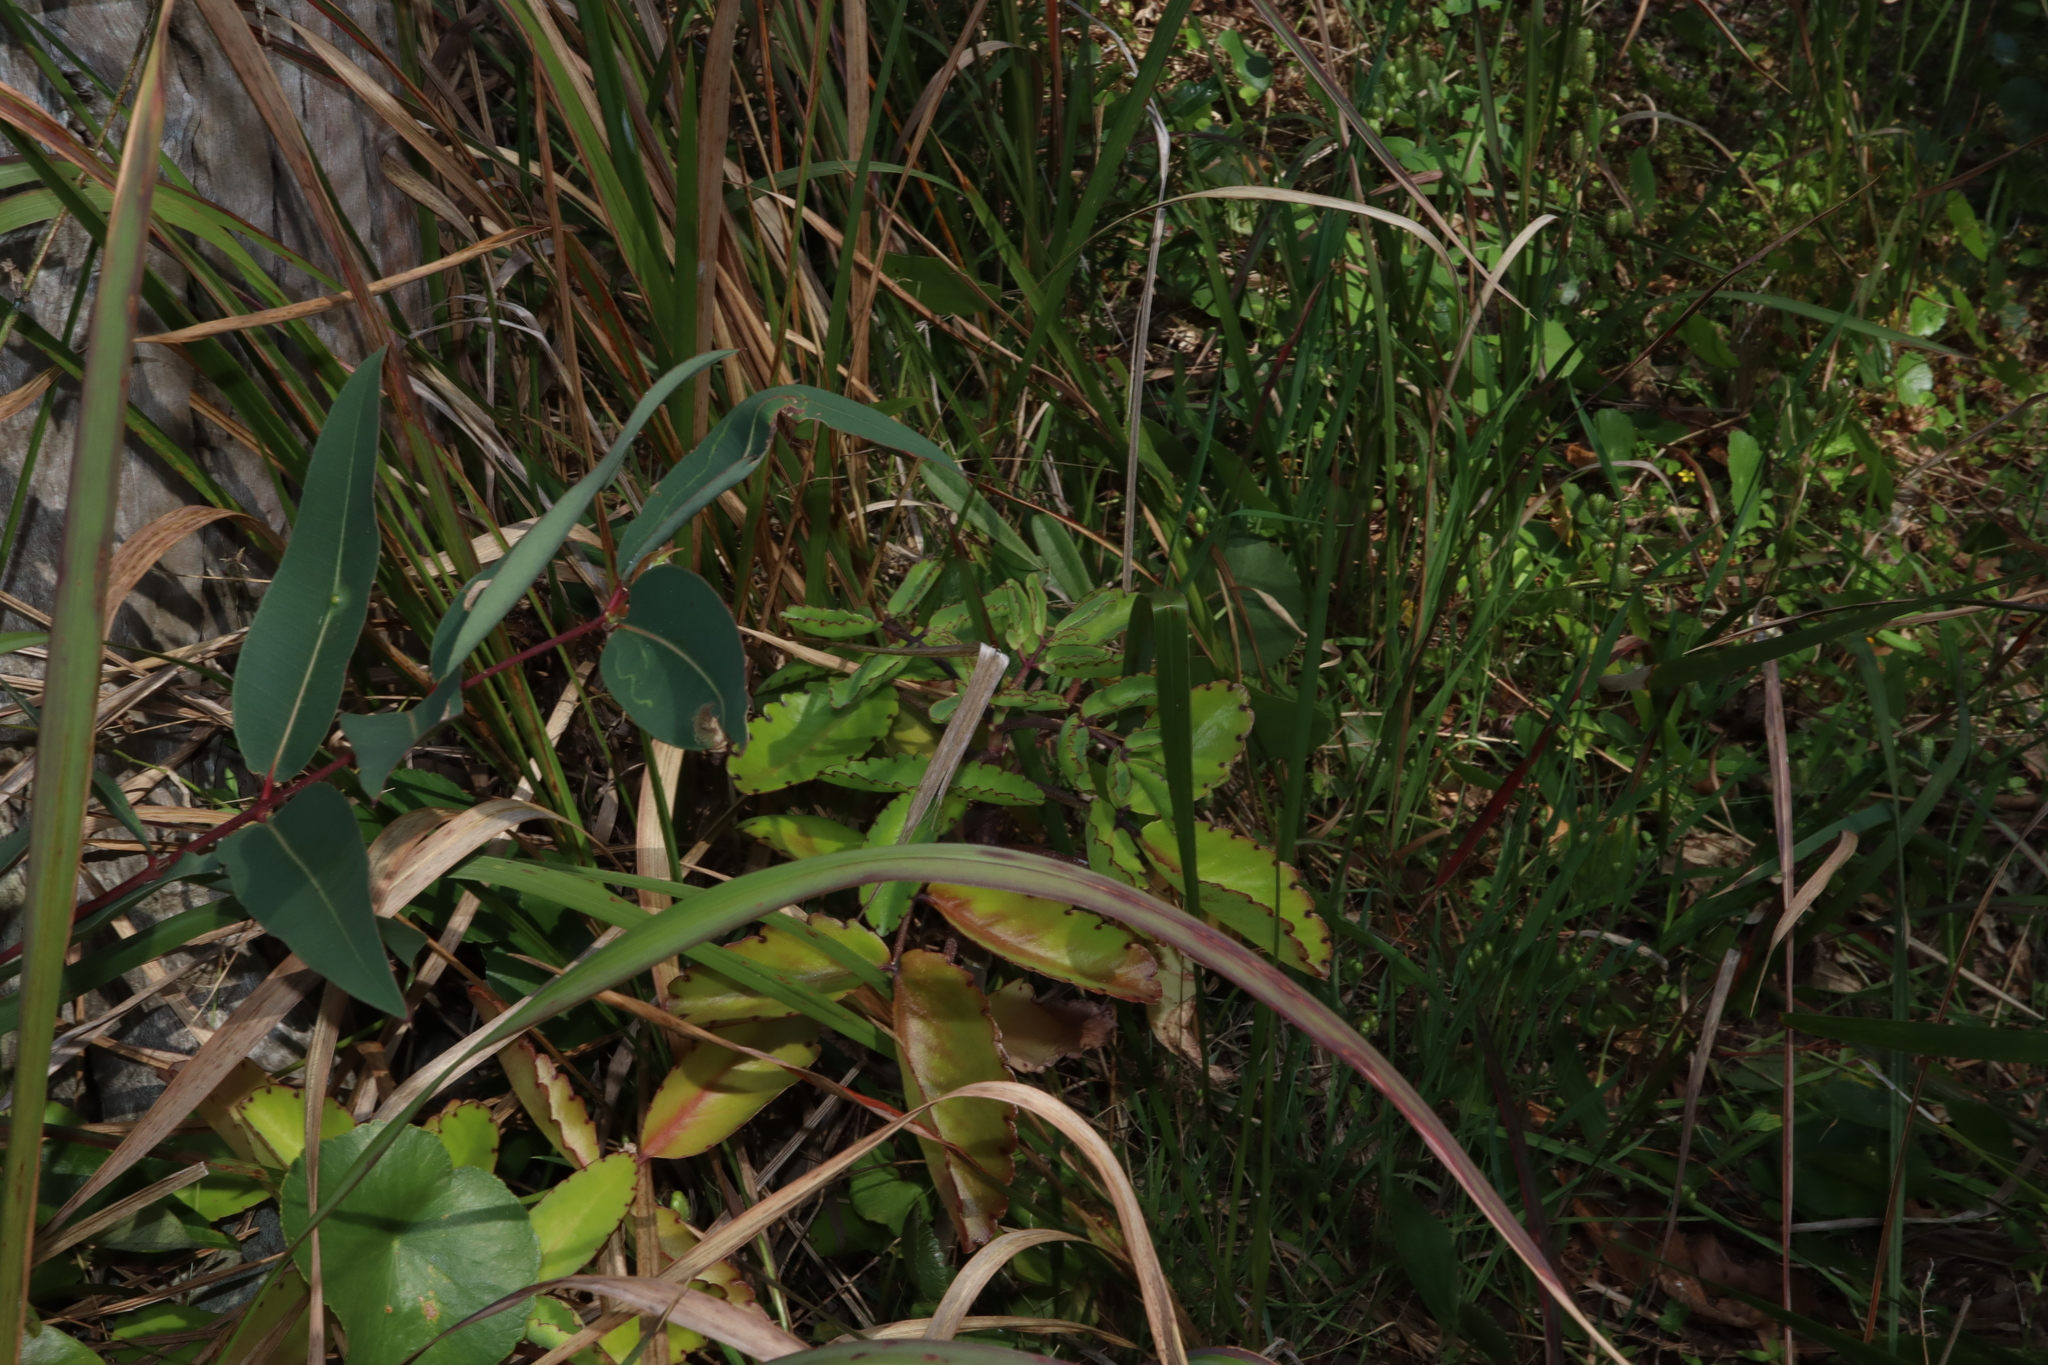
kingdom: Plantae
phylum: Tracheophyta
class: Magnoliopsida
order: Saxifragales
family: Crassulaceae
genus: Kalanchoe
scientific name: Kalanchoe pinnata
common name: Cathedral bells
